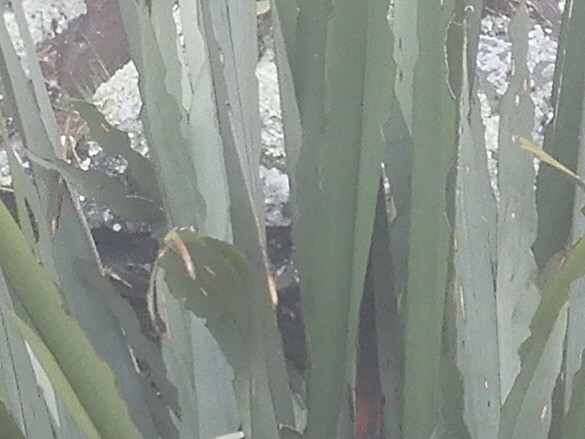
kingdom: Animalia
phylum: Arthropoda
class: Insecta
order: Lepidoptera
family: Noctuidae
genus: Ichneutica
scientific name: Ichneutica
